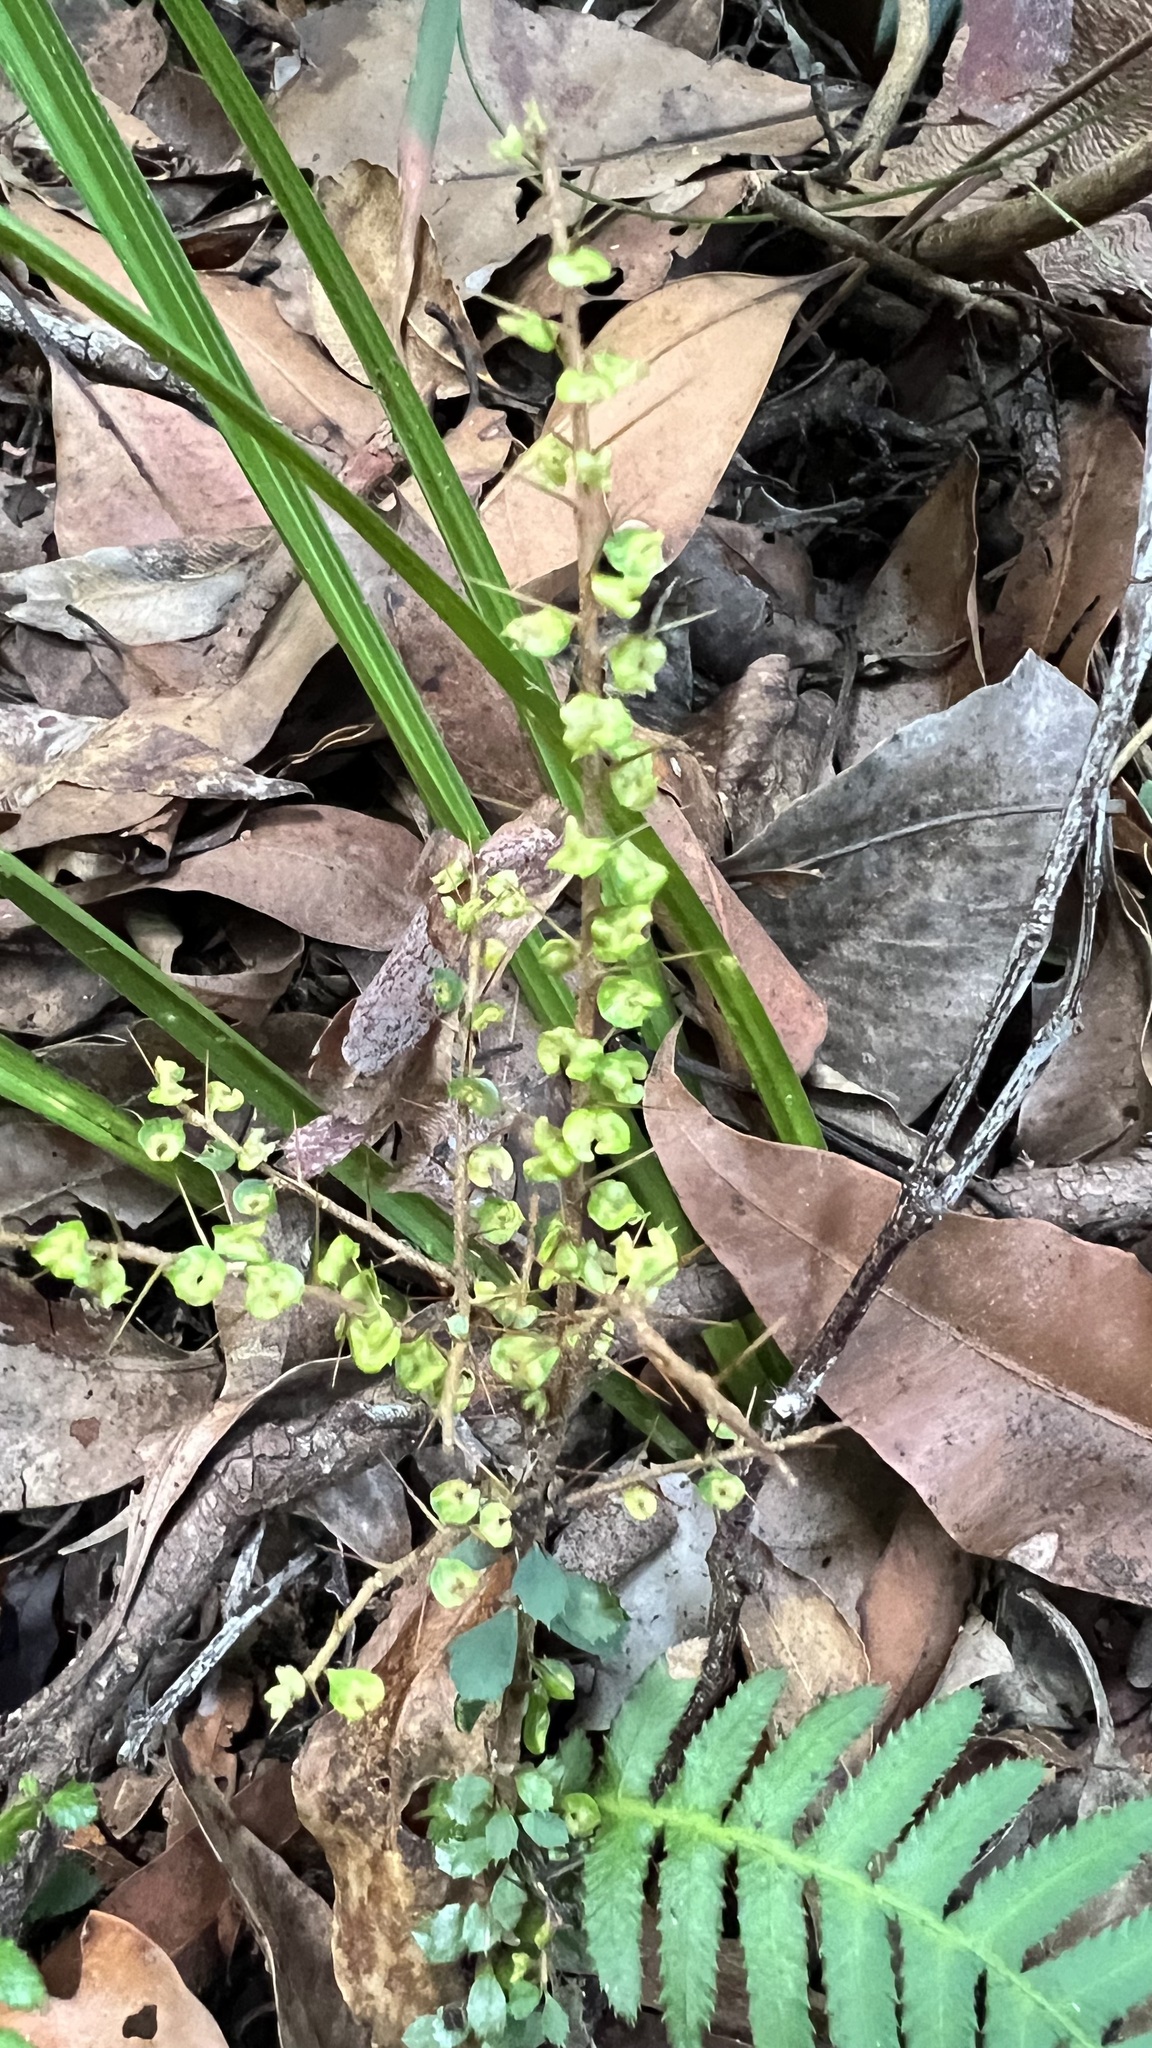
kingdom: Plantae
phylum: Tracheophyta
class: Magnoliopsida
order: Apiales
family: Pittosporaceae
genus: Pittosporum
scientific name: Pittosporum multiflorum
